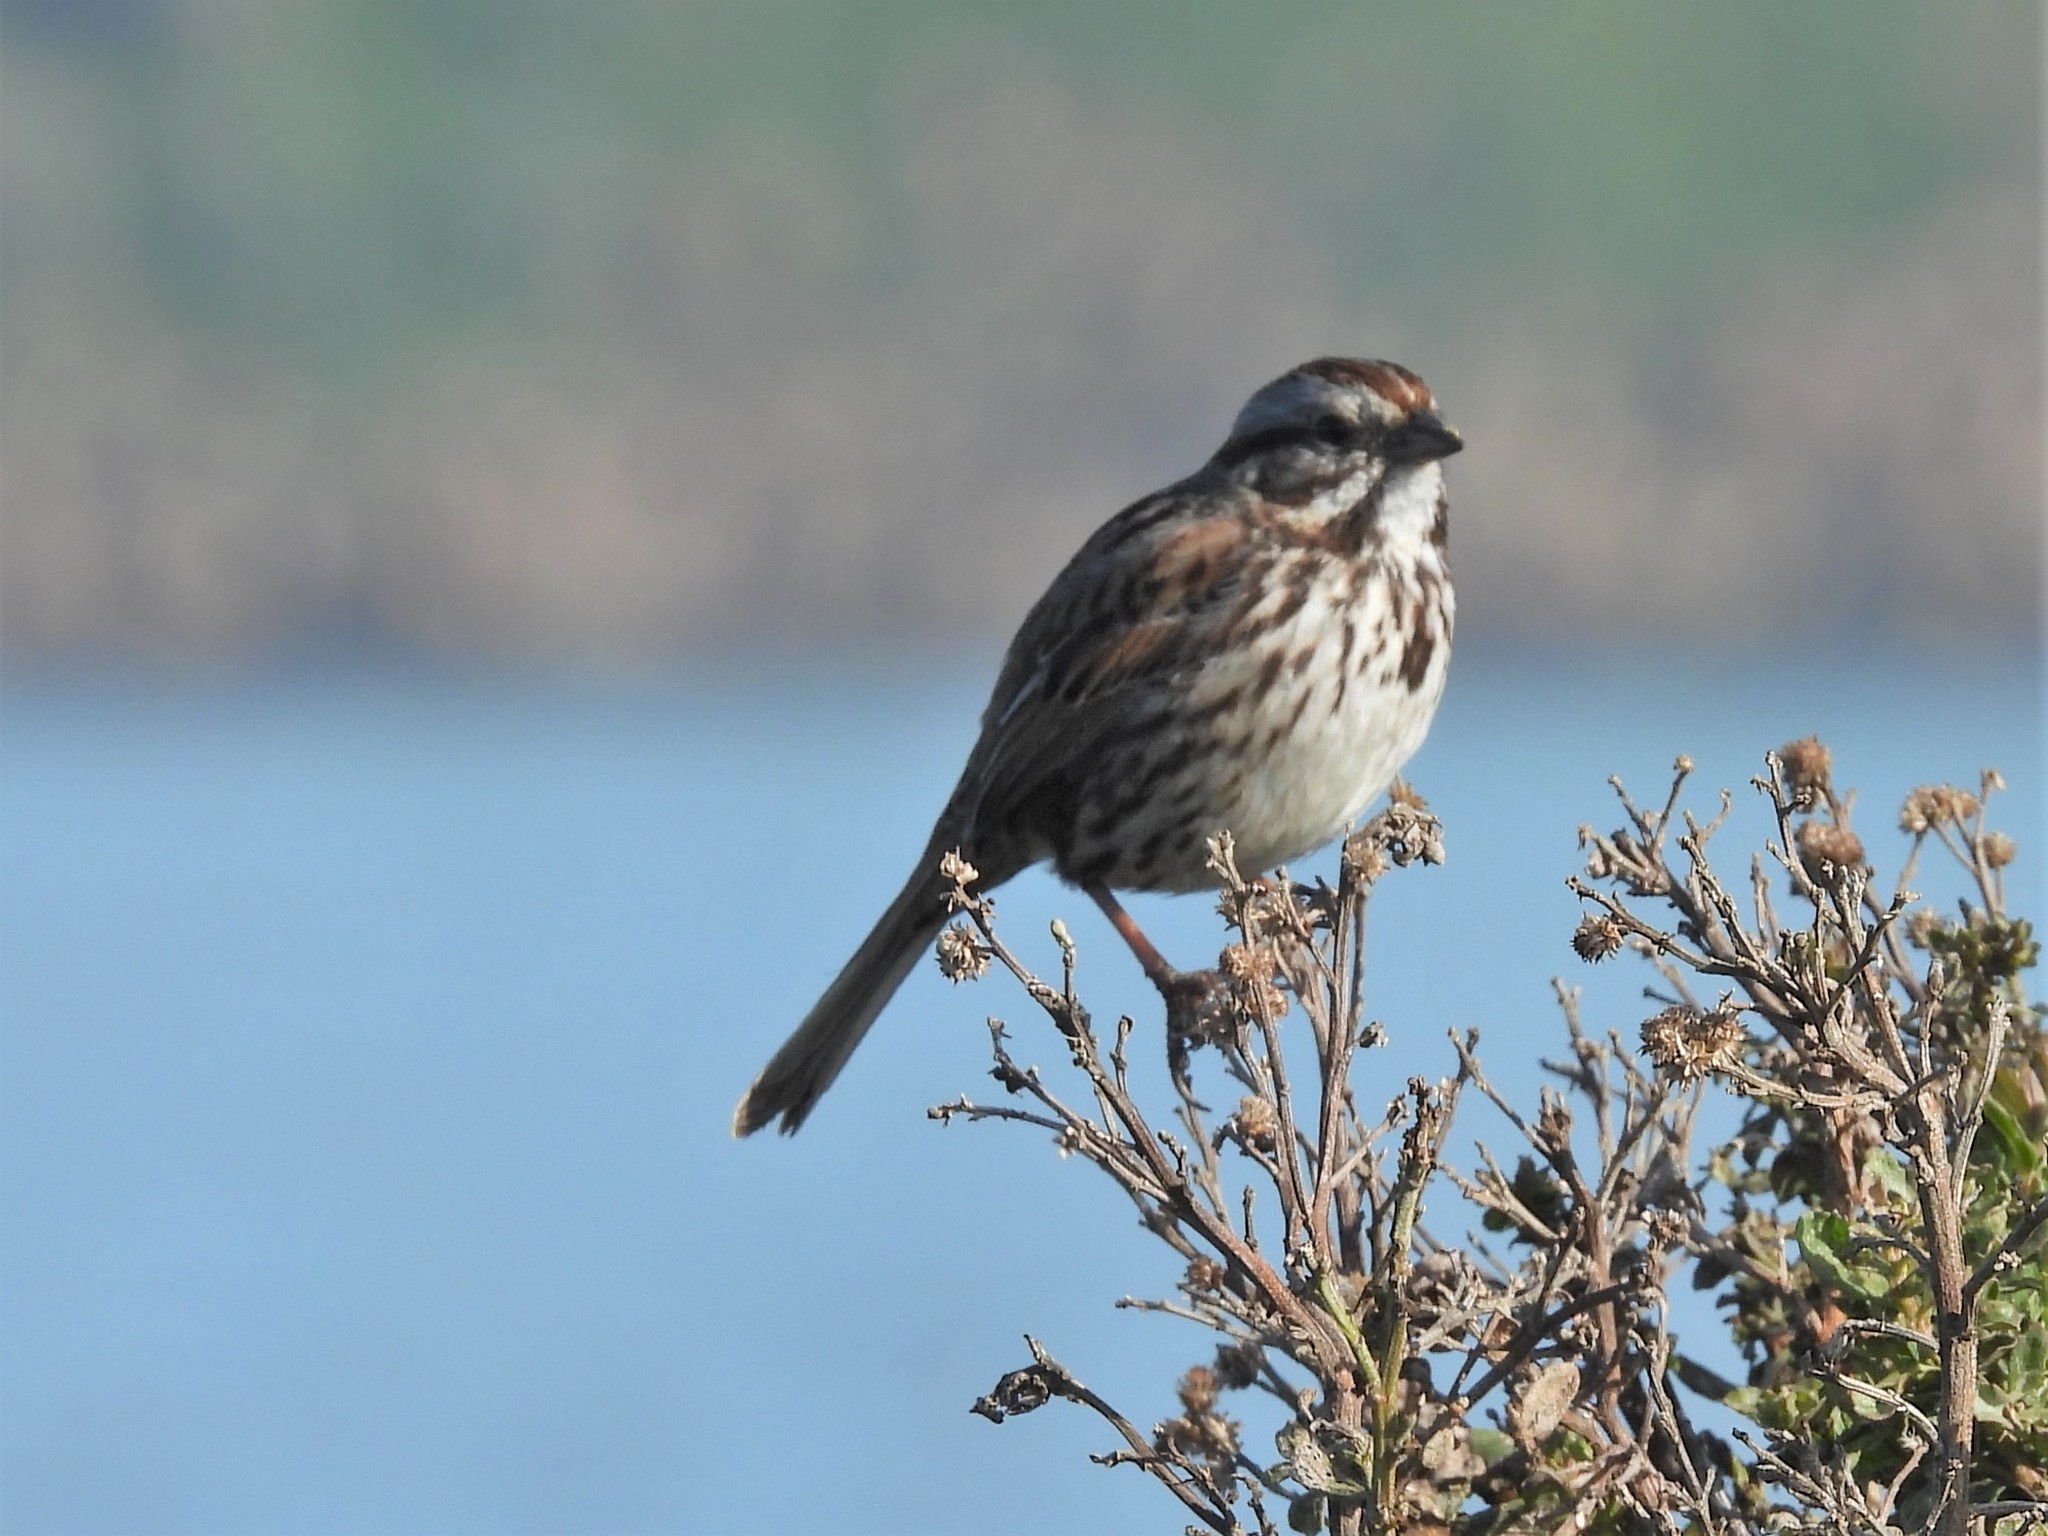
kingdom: Animalia
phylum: Chordata
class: Aves
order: Passeriformes
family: Passerellidae
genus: Melospiza
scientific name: Melospiza melodia
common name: Song sparrow
